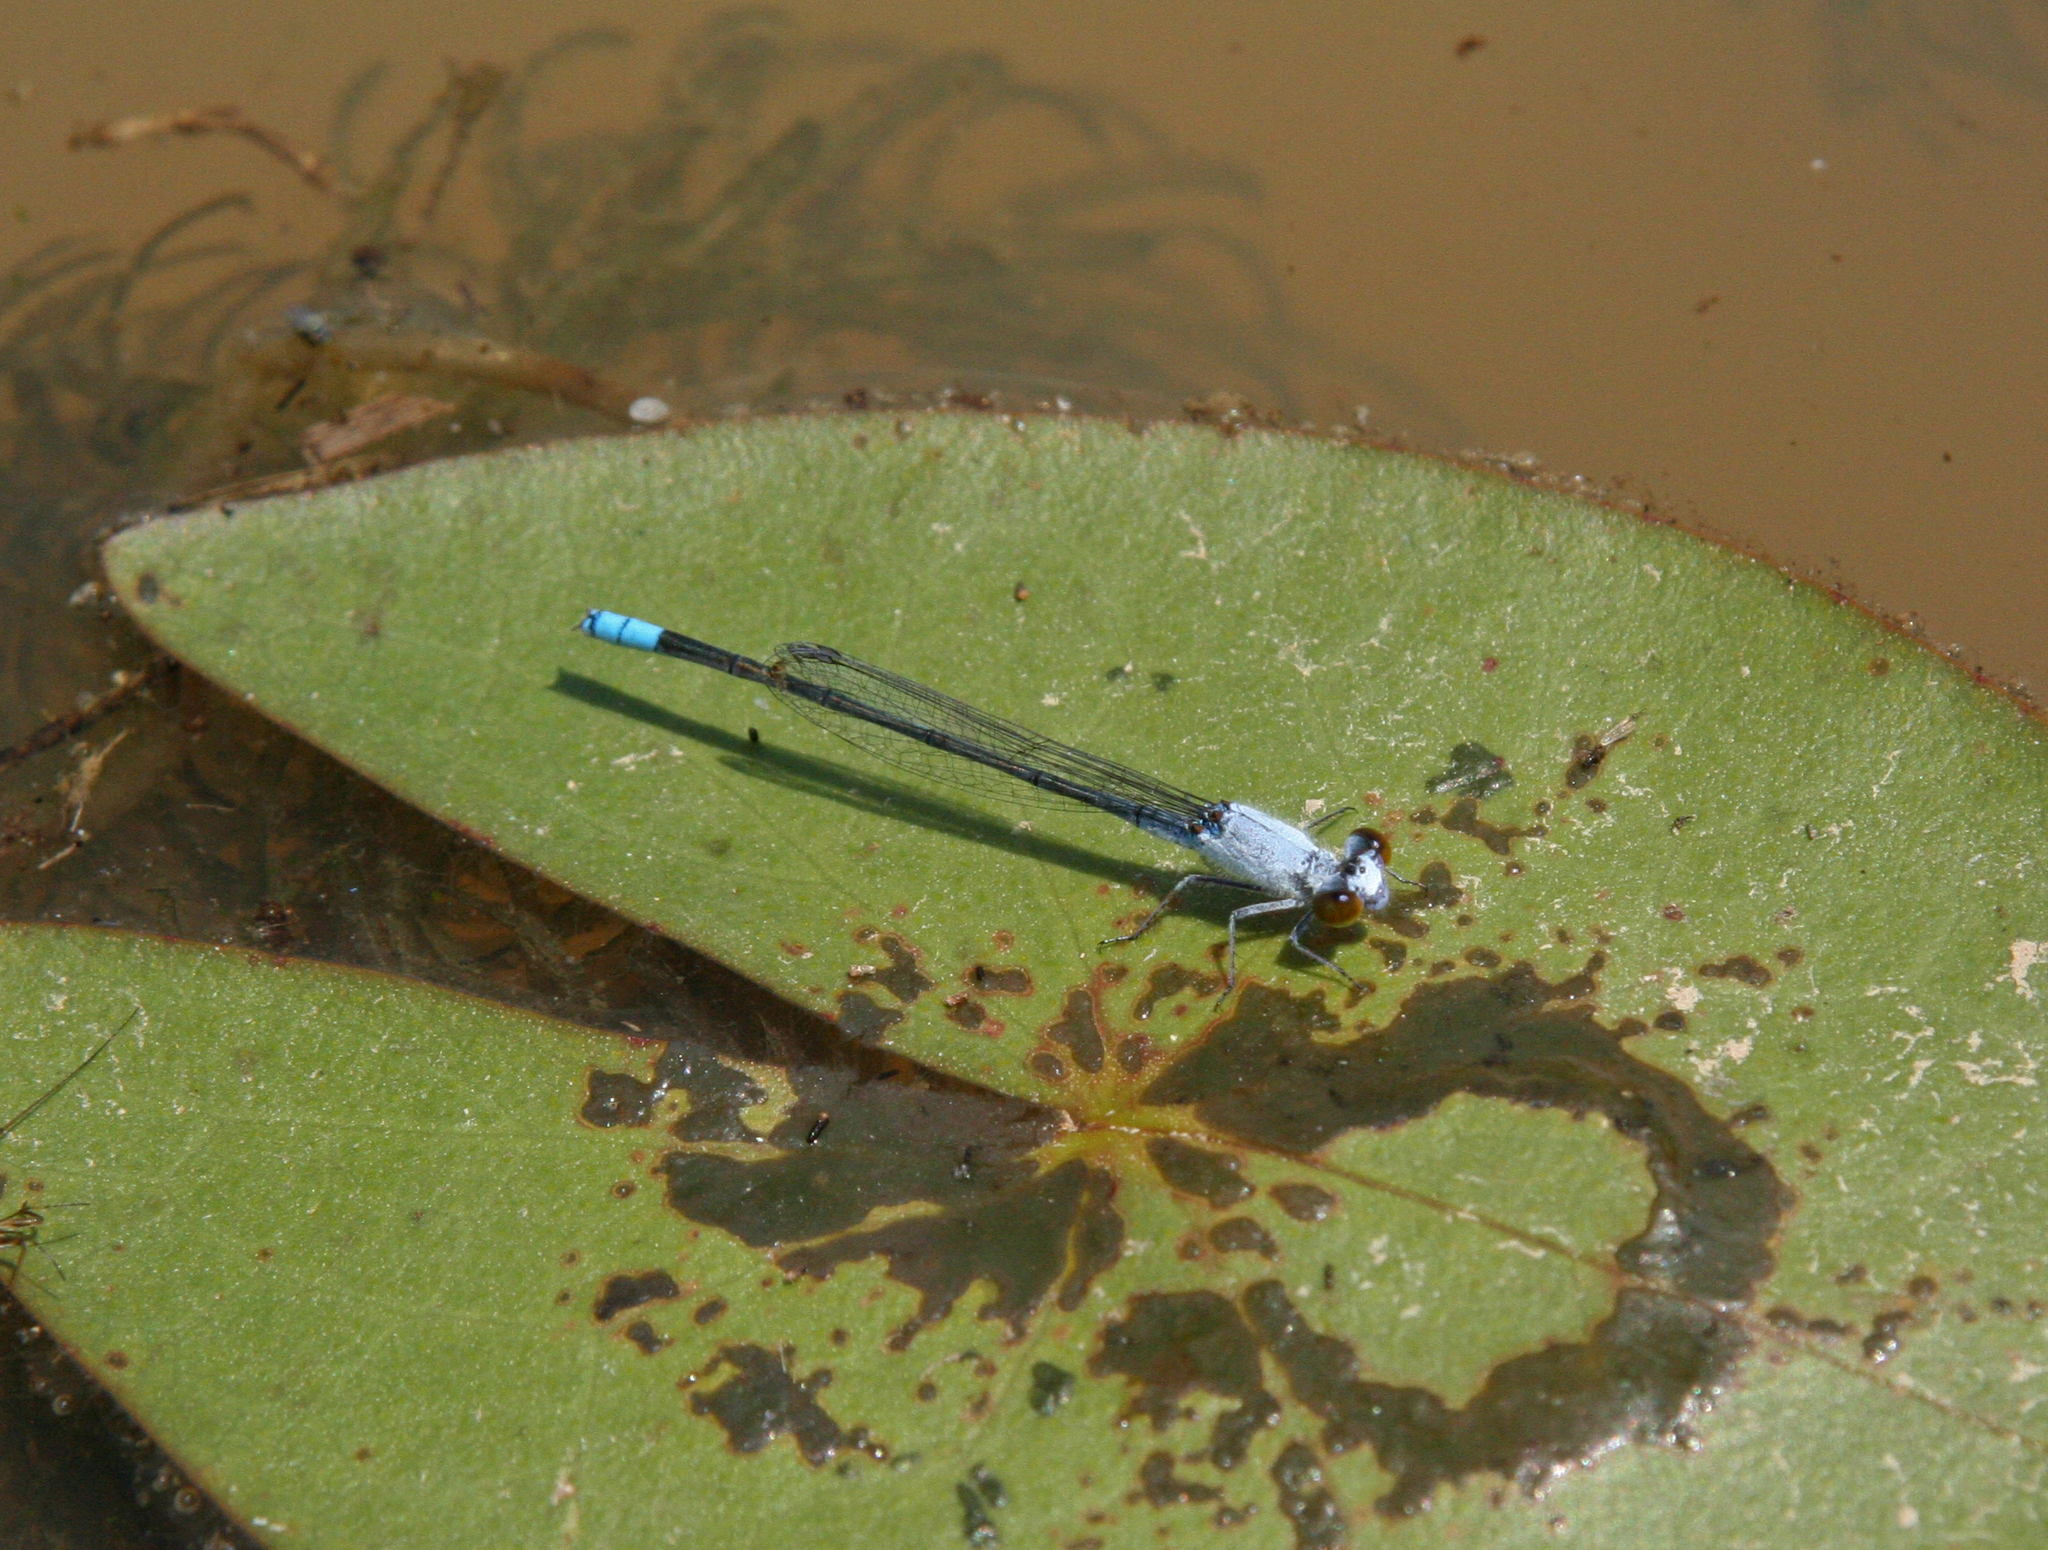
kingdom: Animalia
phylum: Arthropoda
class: Insecta
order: Odonata
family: Coenagrionidae
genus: Paracercion
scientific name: Paracercion calamorum
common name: Dusky lilysquatter
